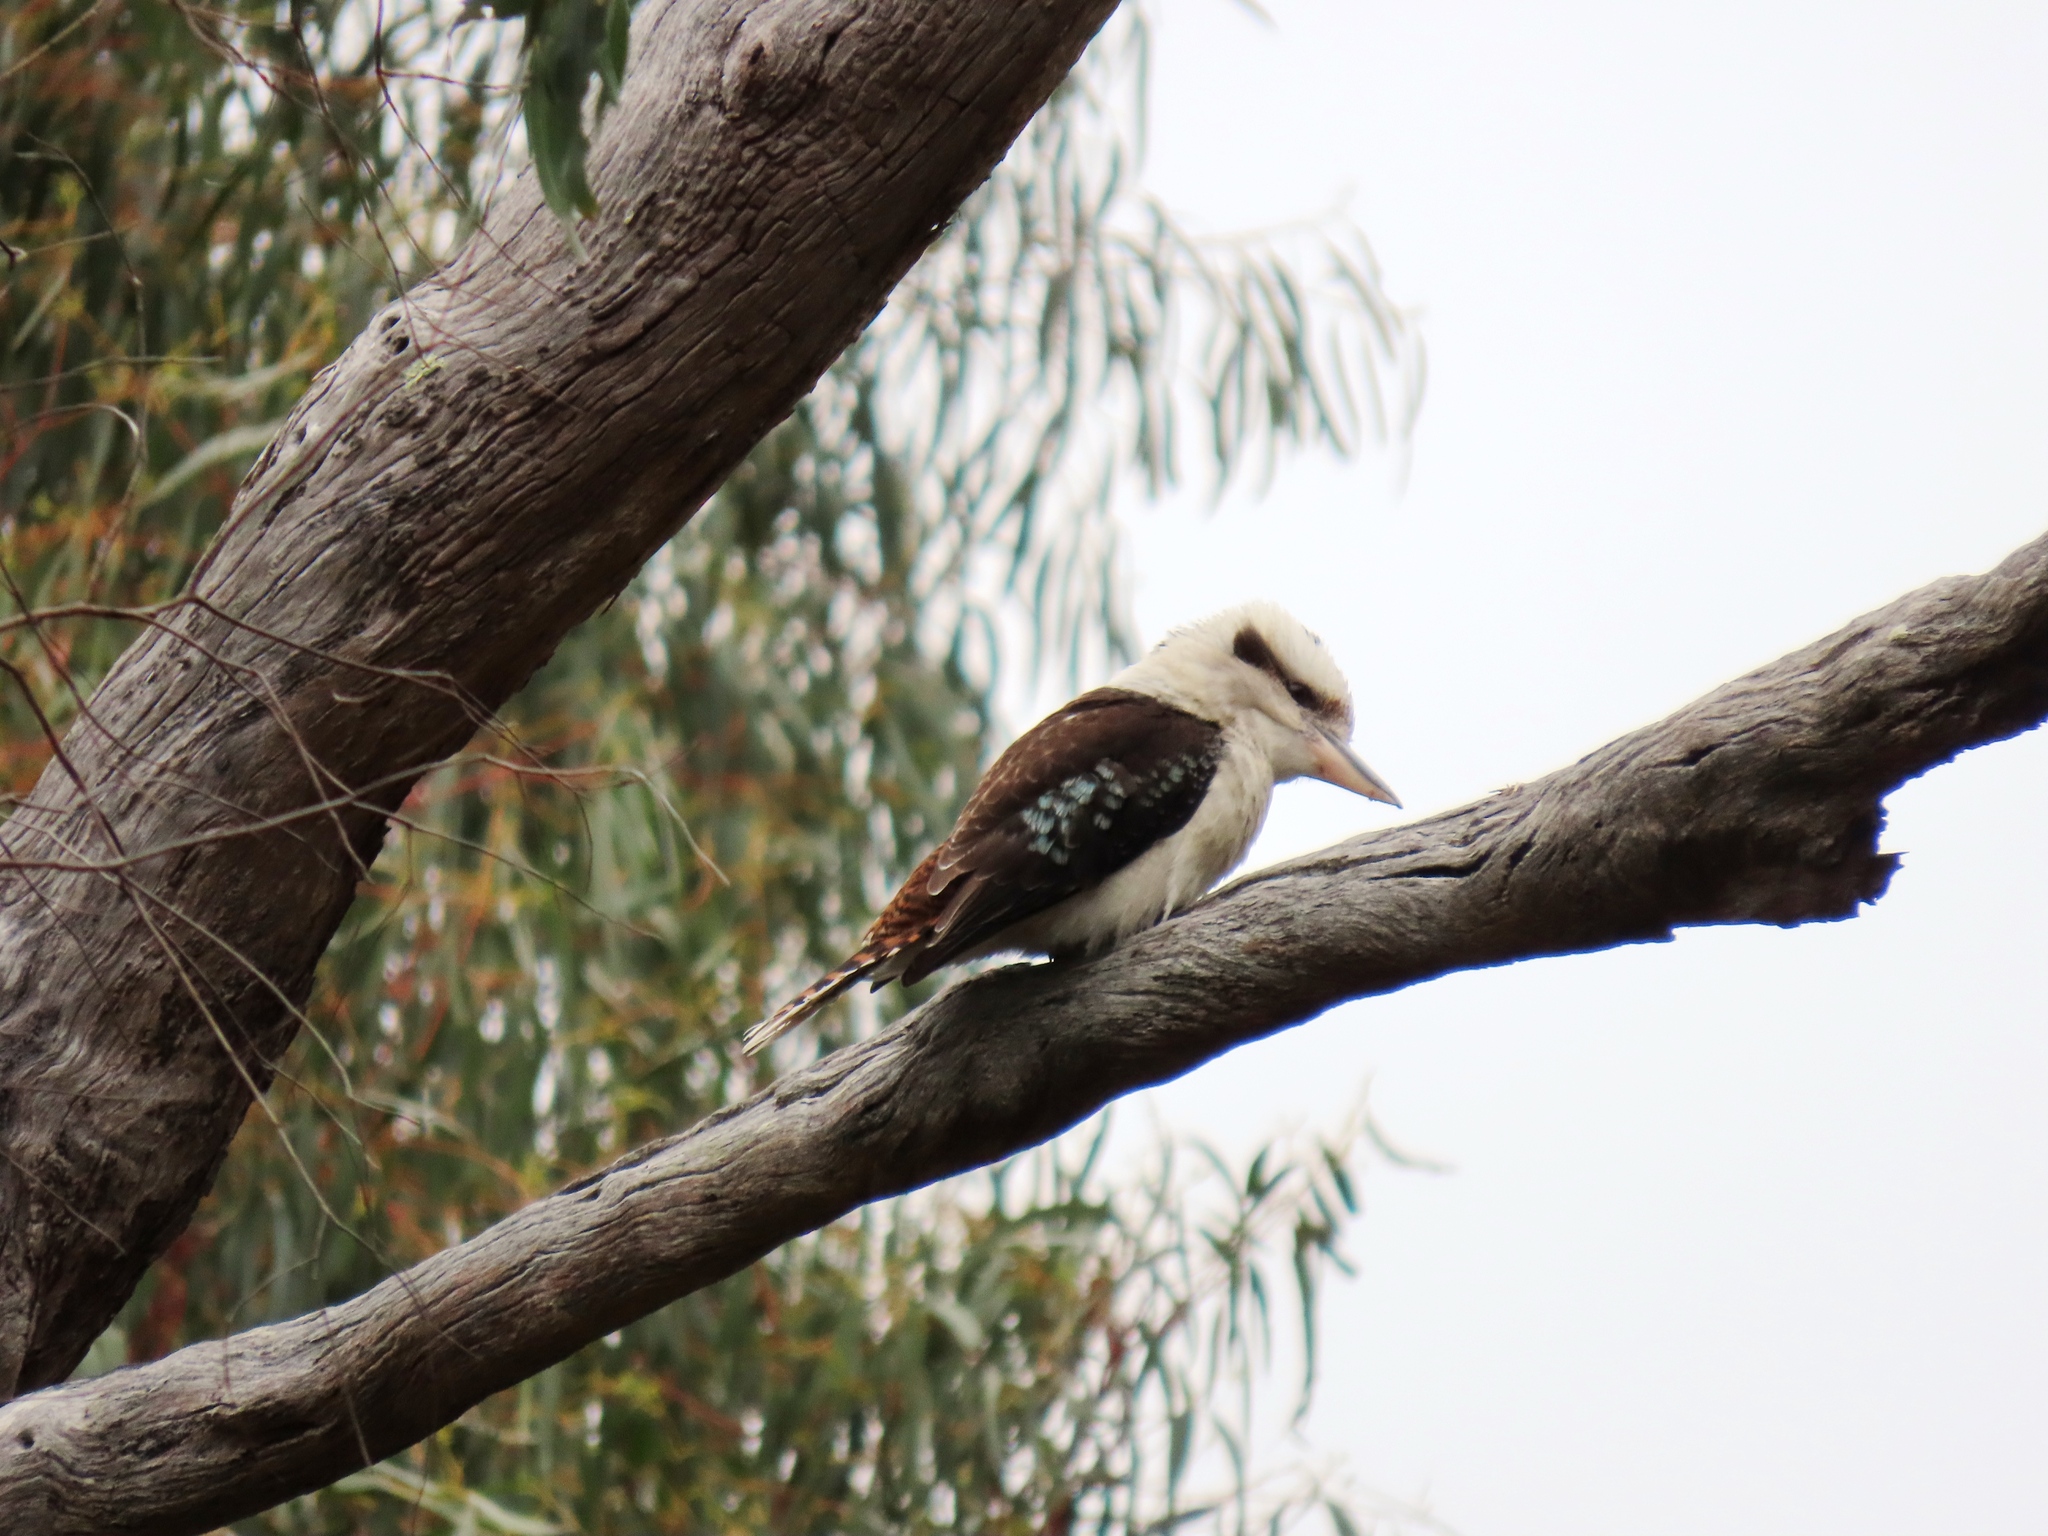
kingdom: Animalia
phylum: Chordata
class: Aves
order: Coraciiformes
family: Alcedinidae
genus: Dacelo
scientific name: Dacelo novaeguineae
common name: Laughing kookaburra
